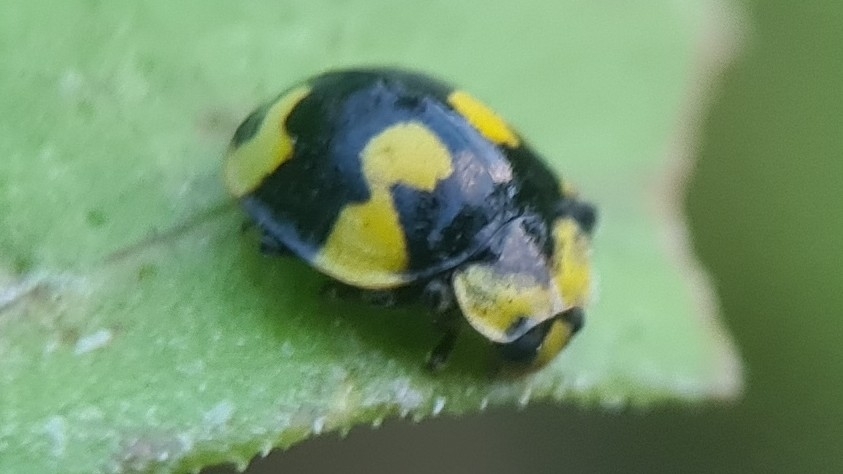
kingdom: Animalia
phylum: Arthropoda
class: Insecta
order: Coleoptera
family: Coccinellidae
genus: Illeis
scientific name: Illeis galbula
